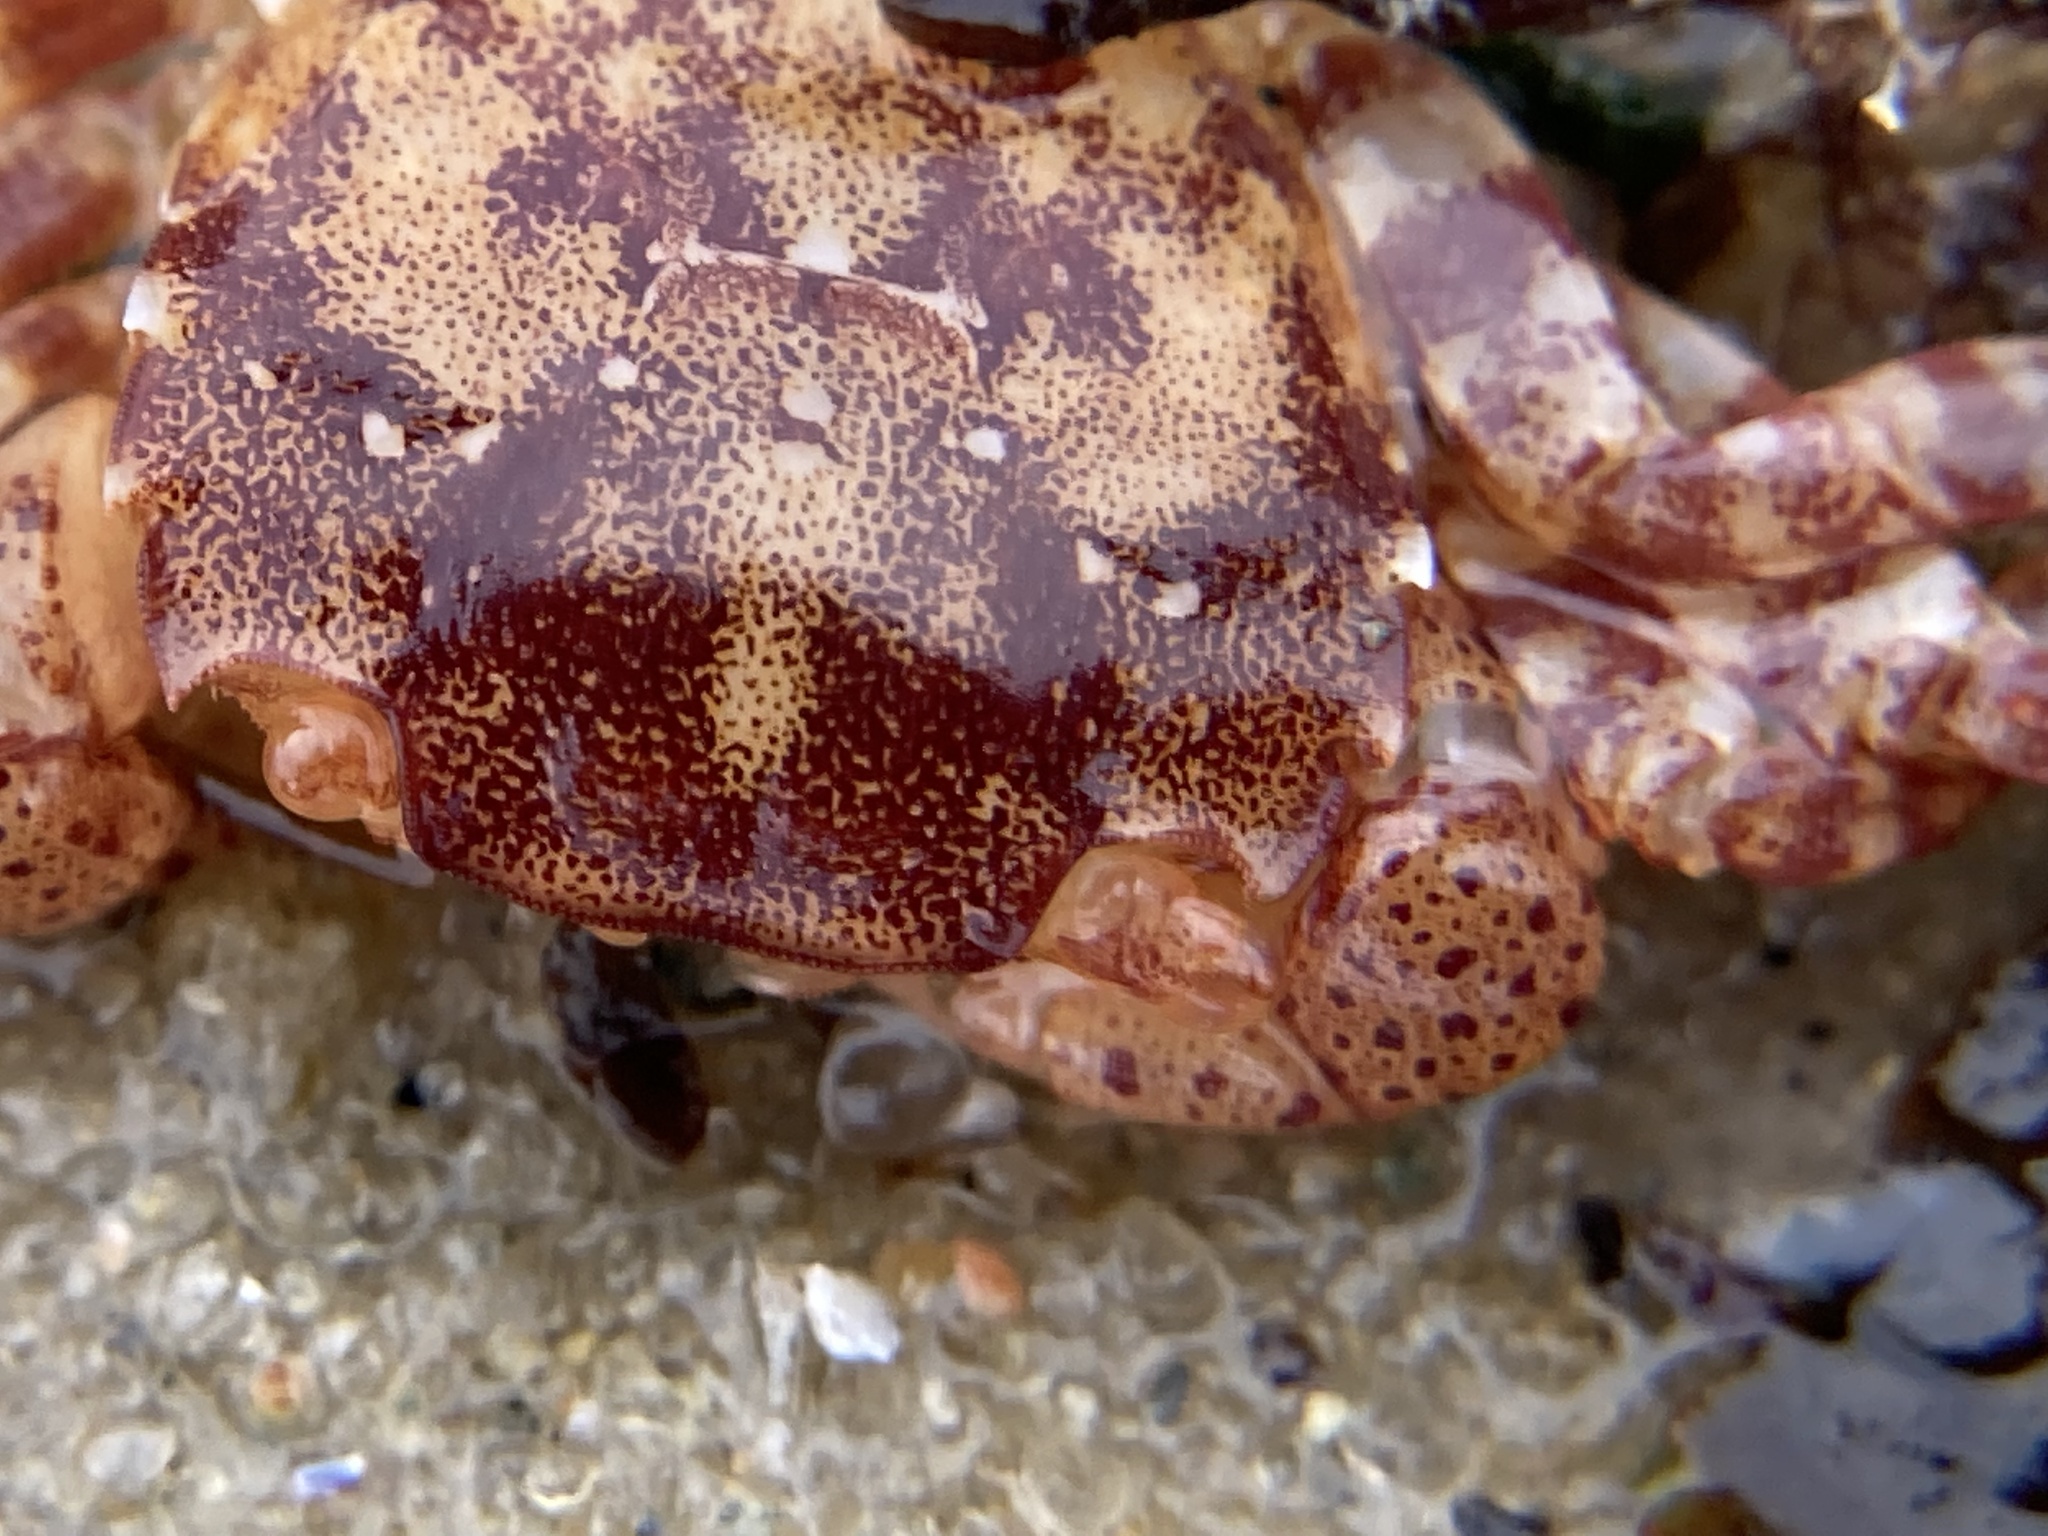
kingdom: Animalia
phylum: Arthropoda
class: Malacostraca
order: Decapoda
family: Varunidae
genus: Hemigrapsus
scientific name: Hemigrapsus sanguineus
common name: Asian shore crab
